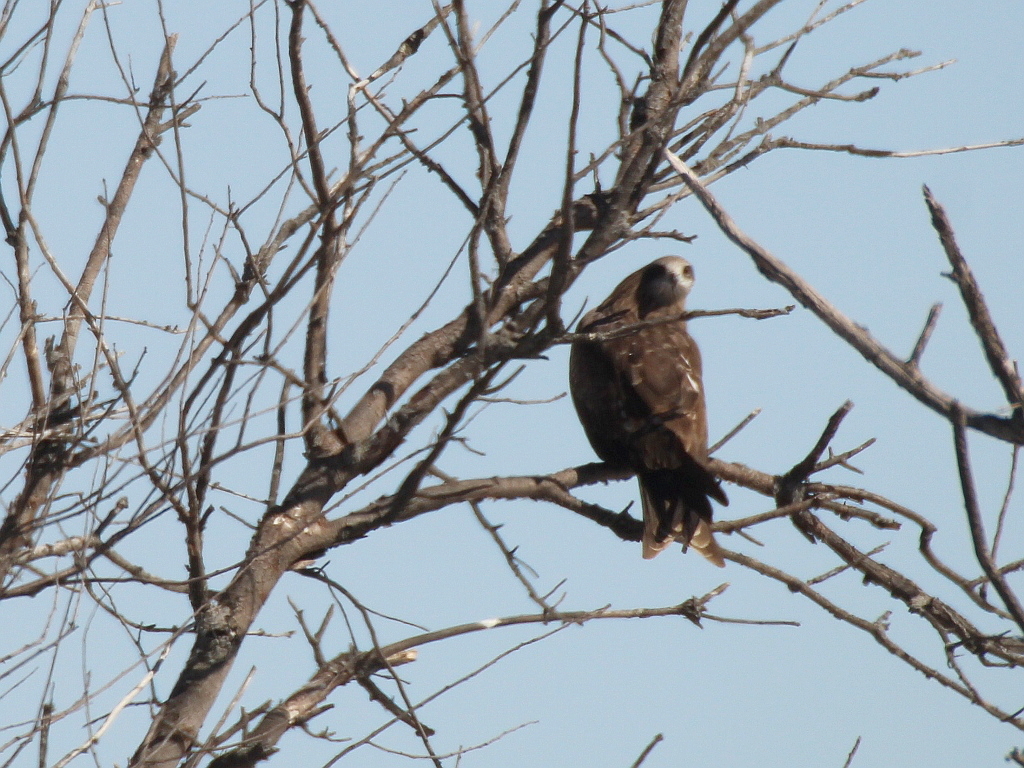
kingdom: Animalia
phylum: Chordata
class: Aves
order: Accipitriformes
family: Accipitridae
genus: Milvus
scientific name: Milvus migrans
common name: Black kite
